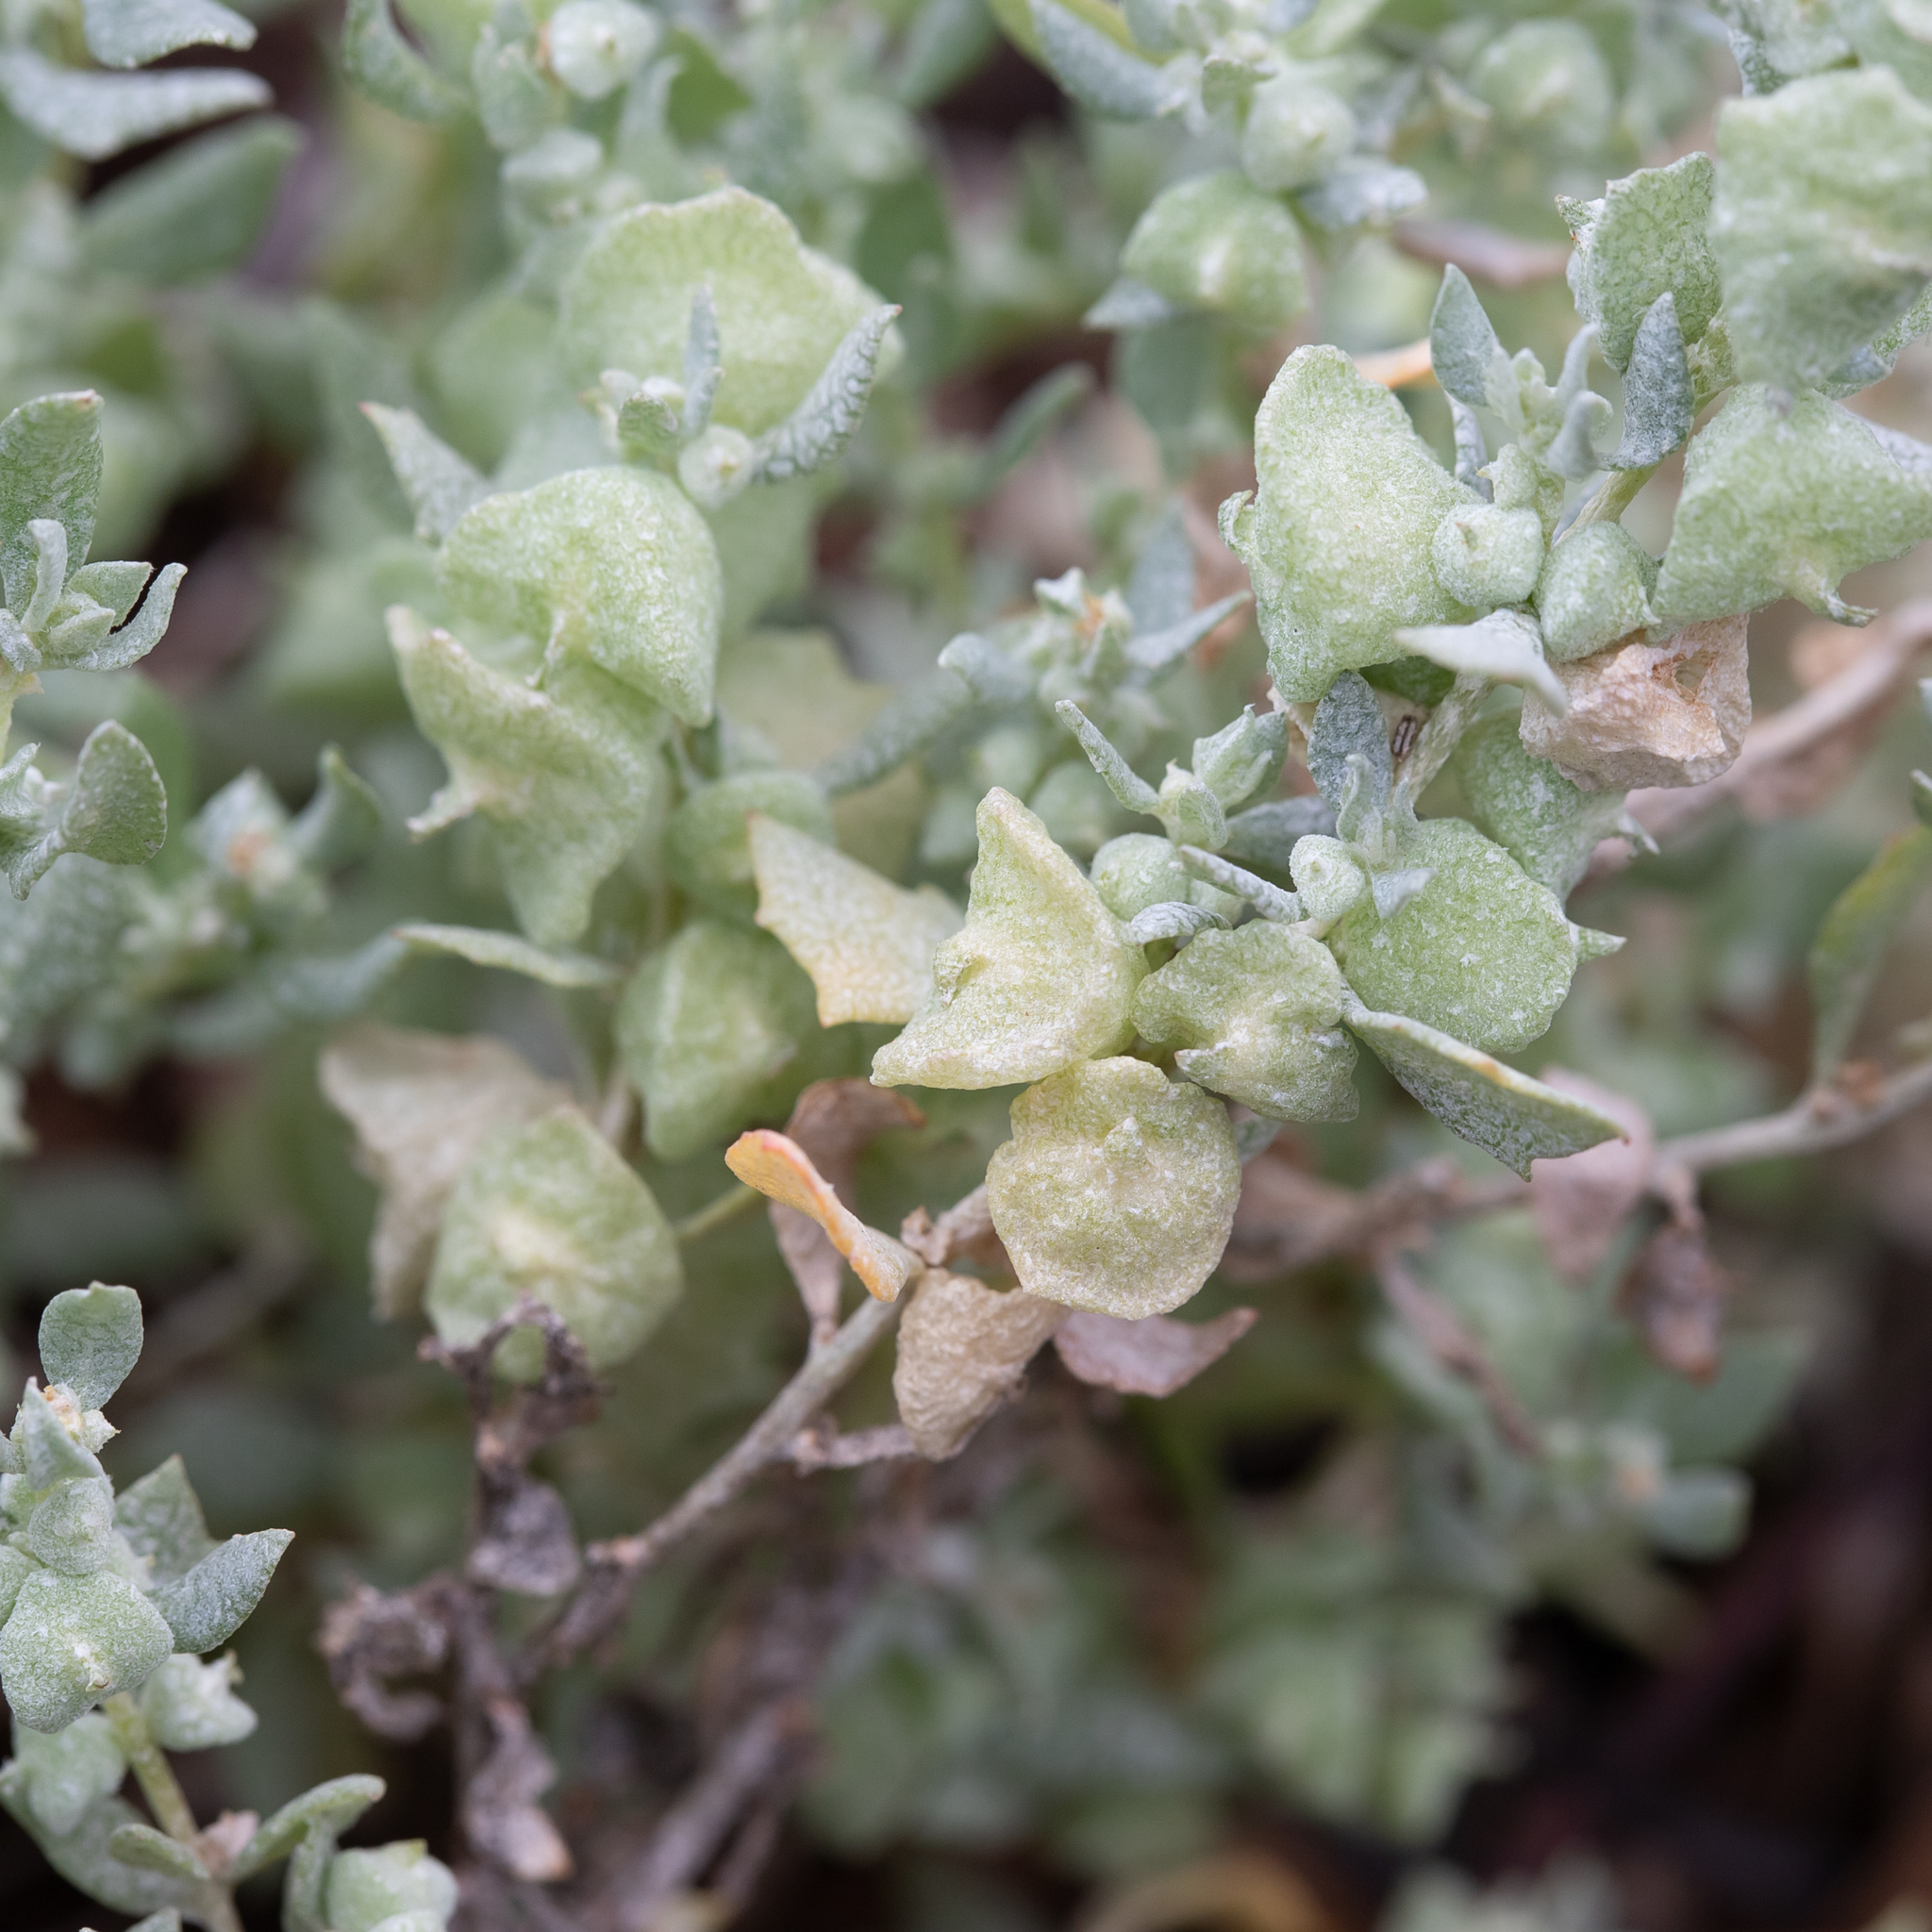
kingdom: Plantae
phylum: Tracheophyta
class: Magnoliopsida
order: Caryophyllales
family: Amaranthaceae
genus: Atriplex
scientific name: Atriplex lindleyi
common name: Lindley's saltbush
